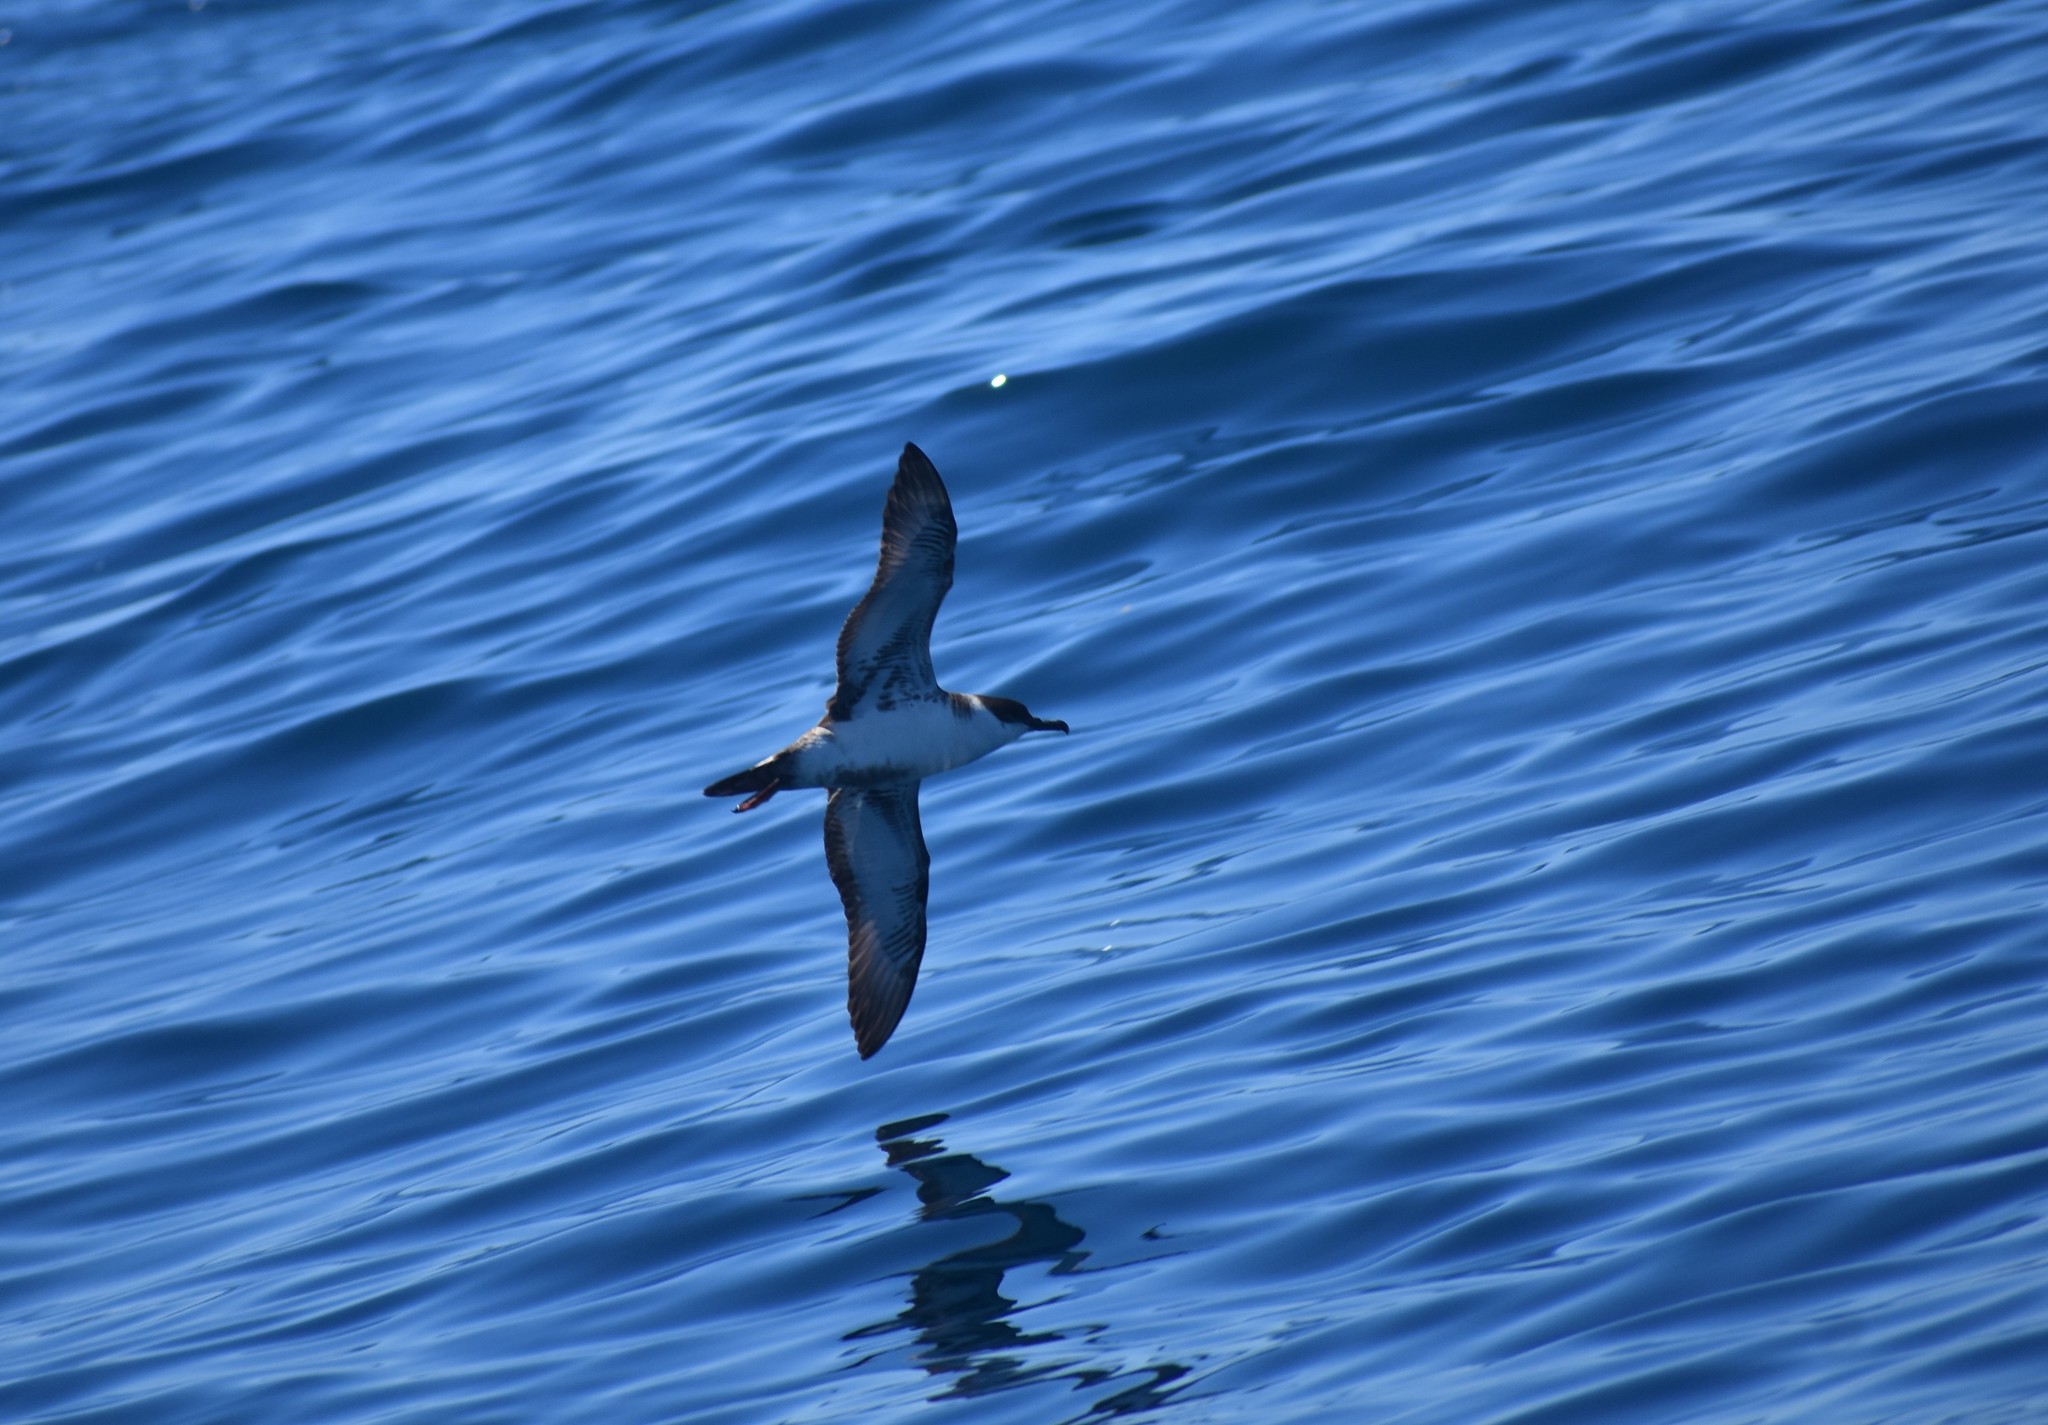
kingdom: Animalia
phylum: Chordata
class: Aves
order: Procellariiformes
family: Procellariidae
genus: Puffinus
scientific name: Puffinus gravis
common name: Great shearwater
